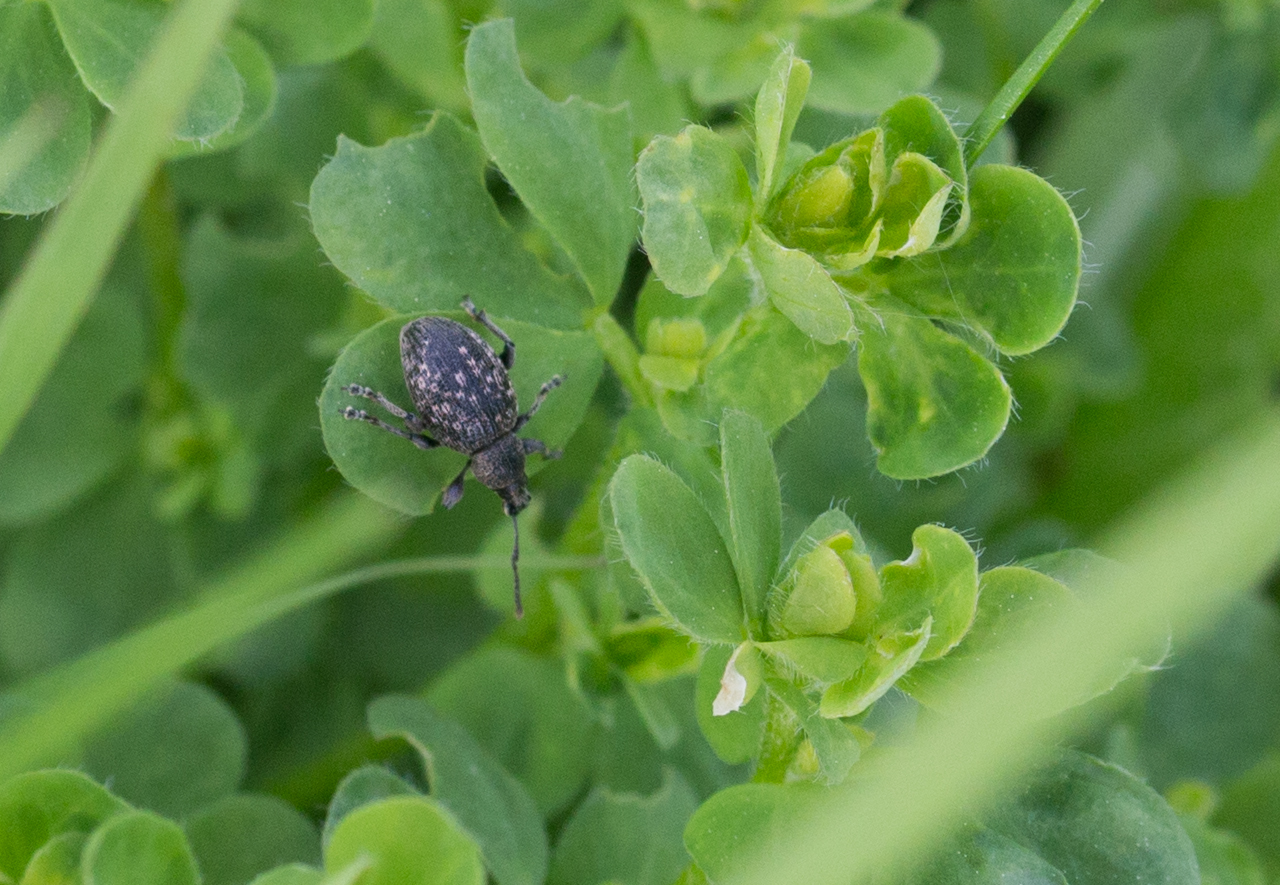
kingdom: Animalia
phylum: Arthropoda
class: Insecta
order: Coleoptera
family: Curculionidae
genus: Otiorhynchus
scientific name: Otiorhynchus tristis
